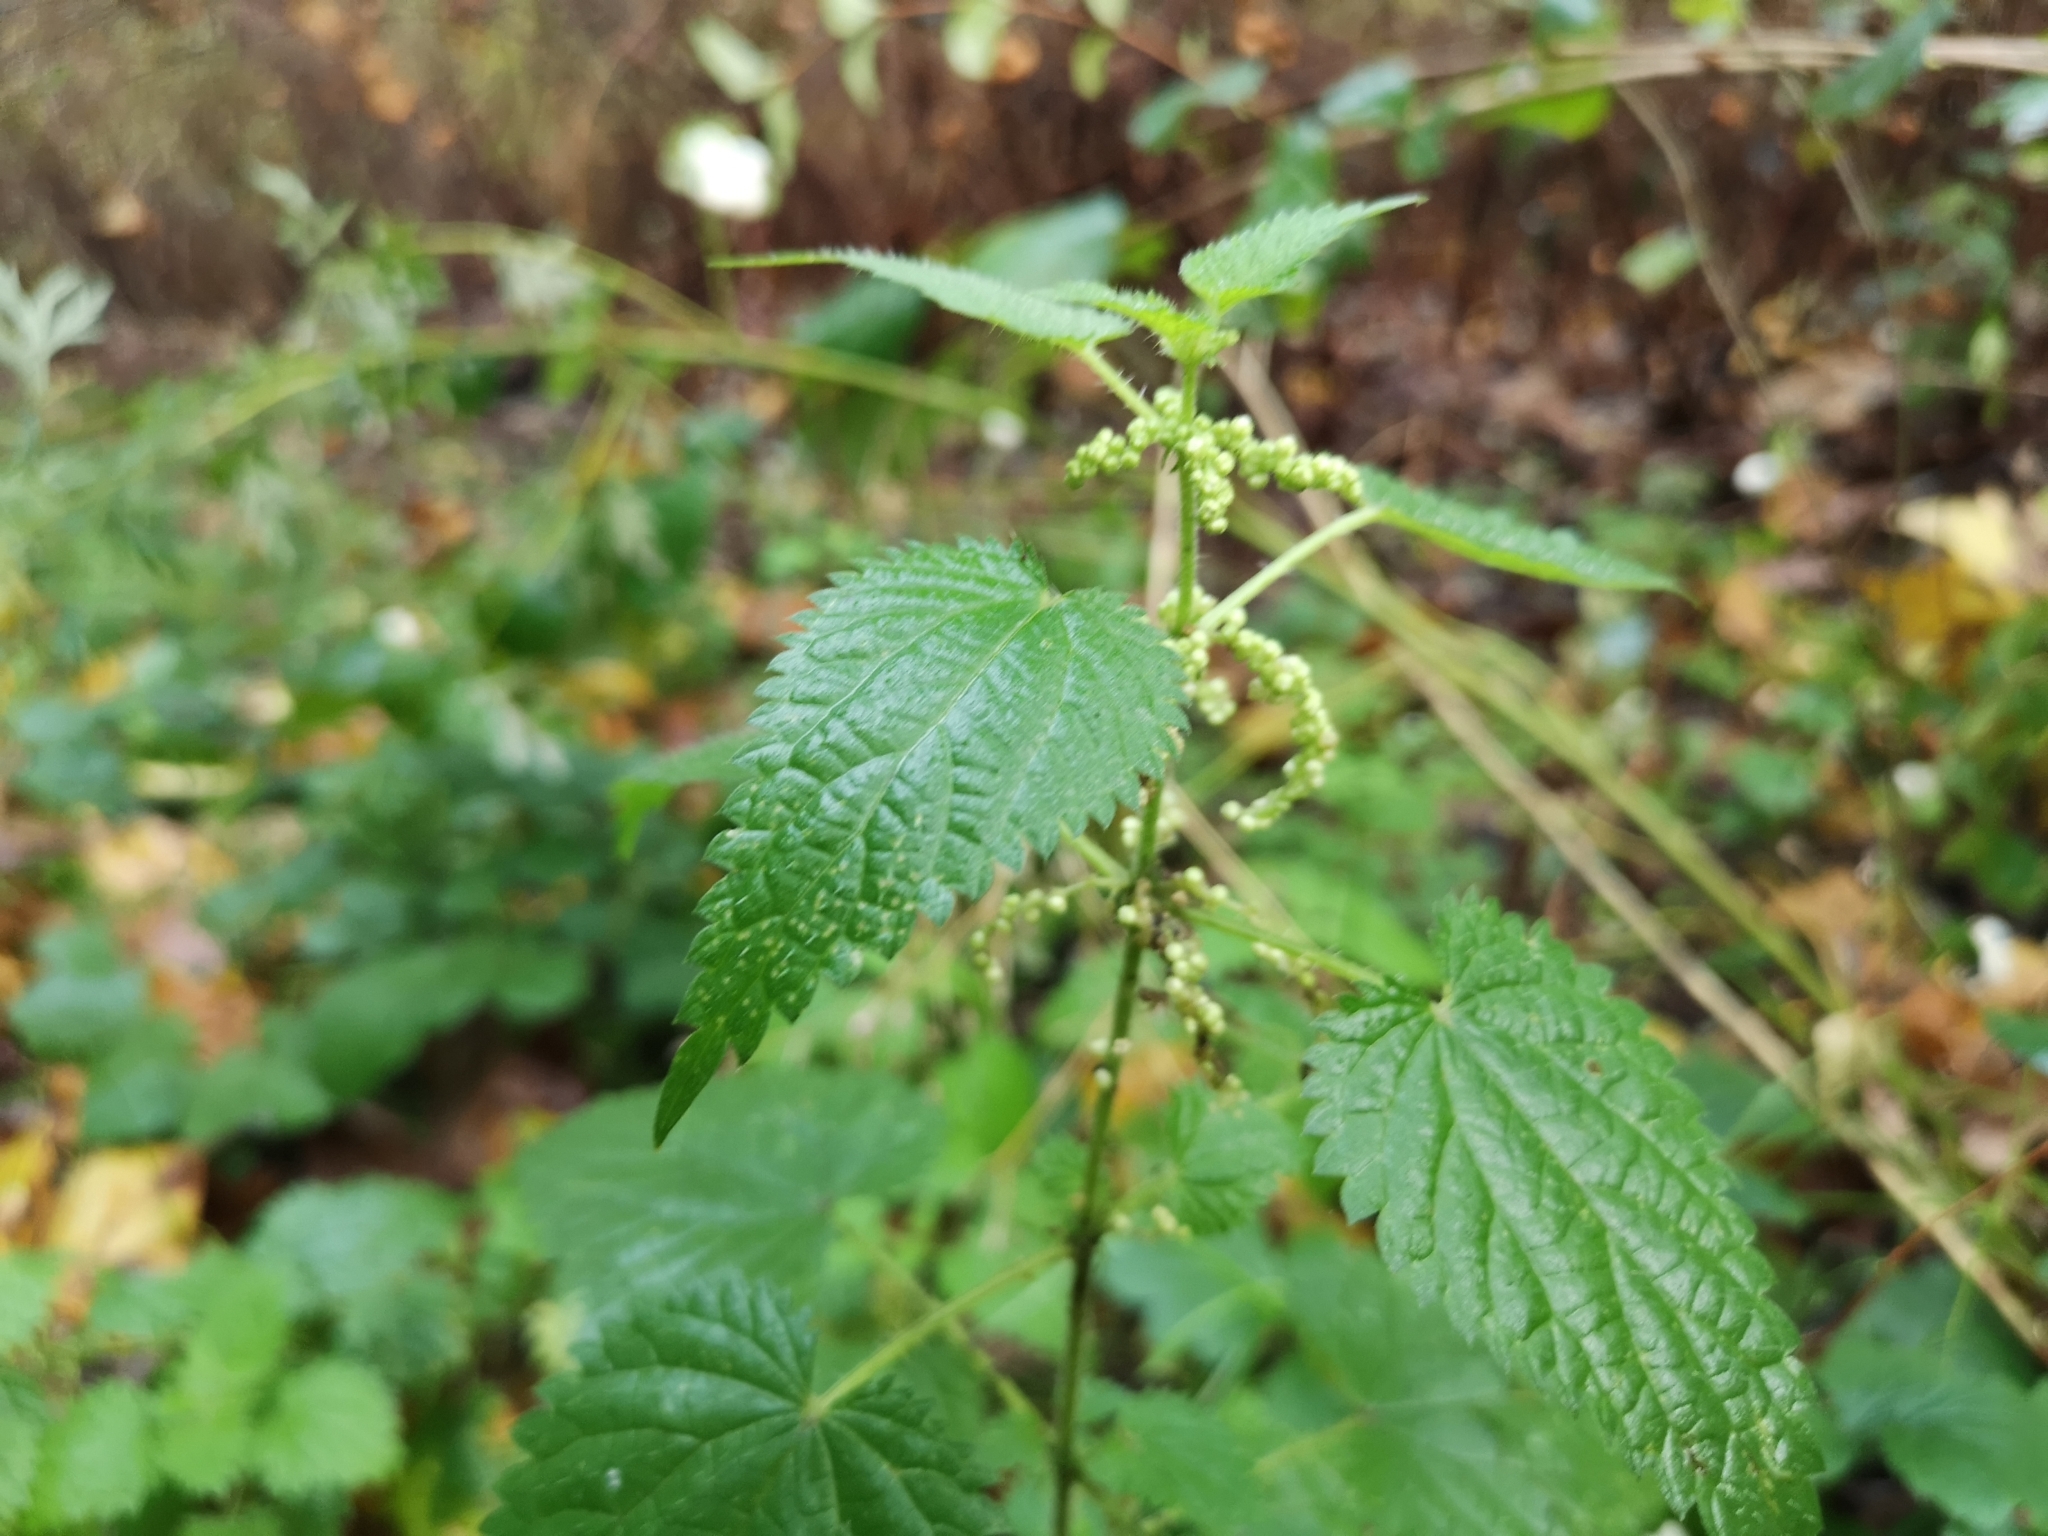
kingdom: Plantae
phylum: Tracheophyta
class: Magnoliopsida
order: Rosales
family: Urticaceae
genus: Urtica
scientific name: Urtica dioica
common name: Common nettle
